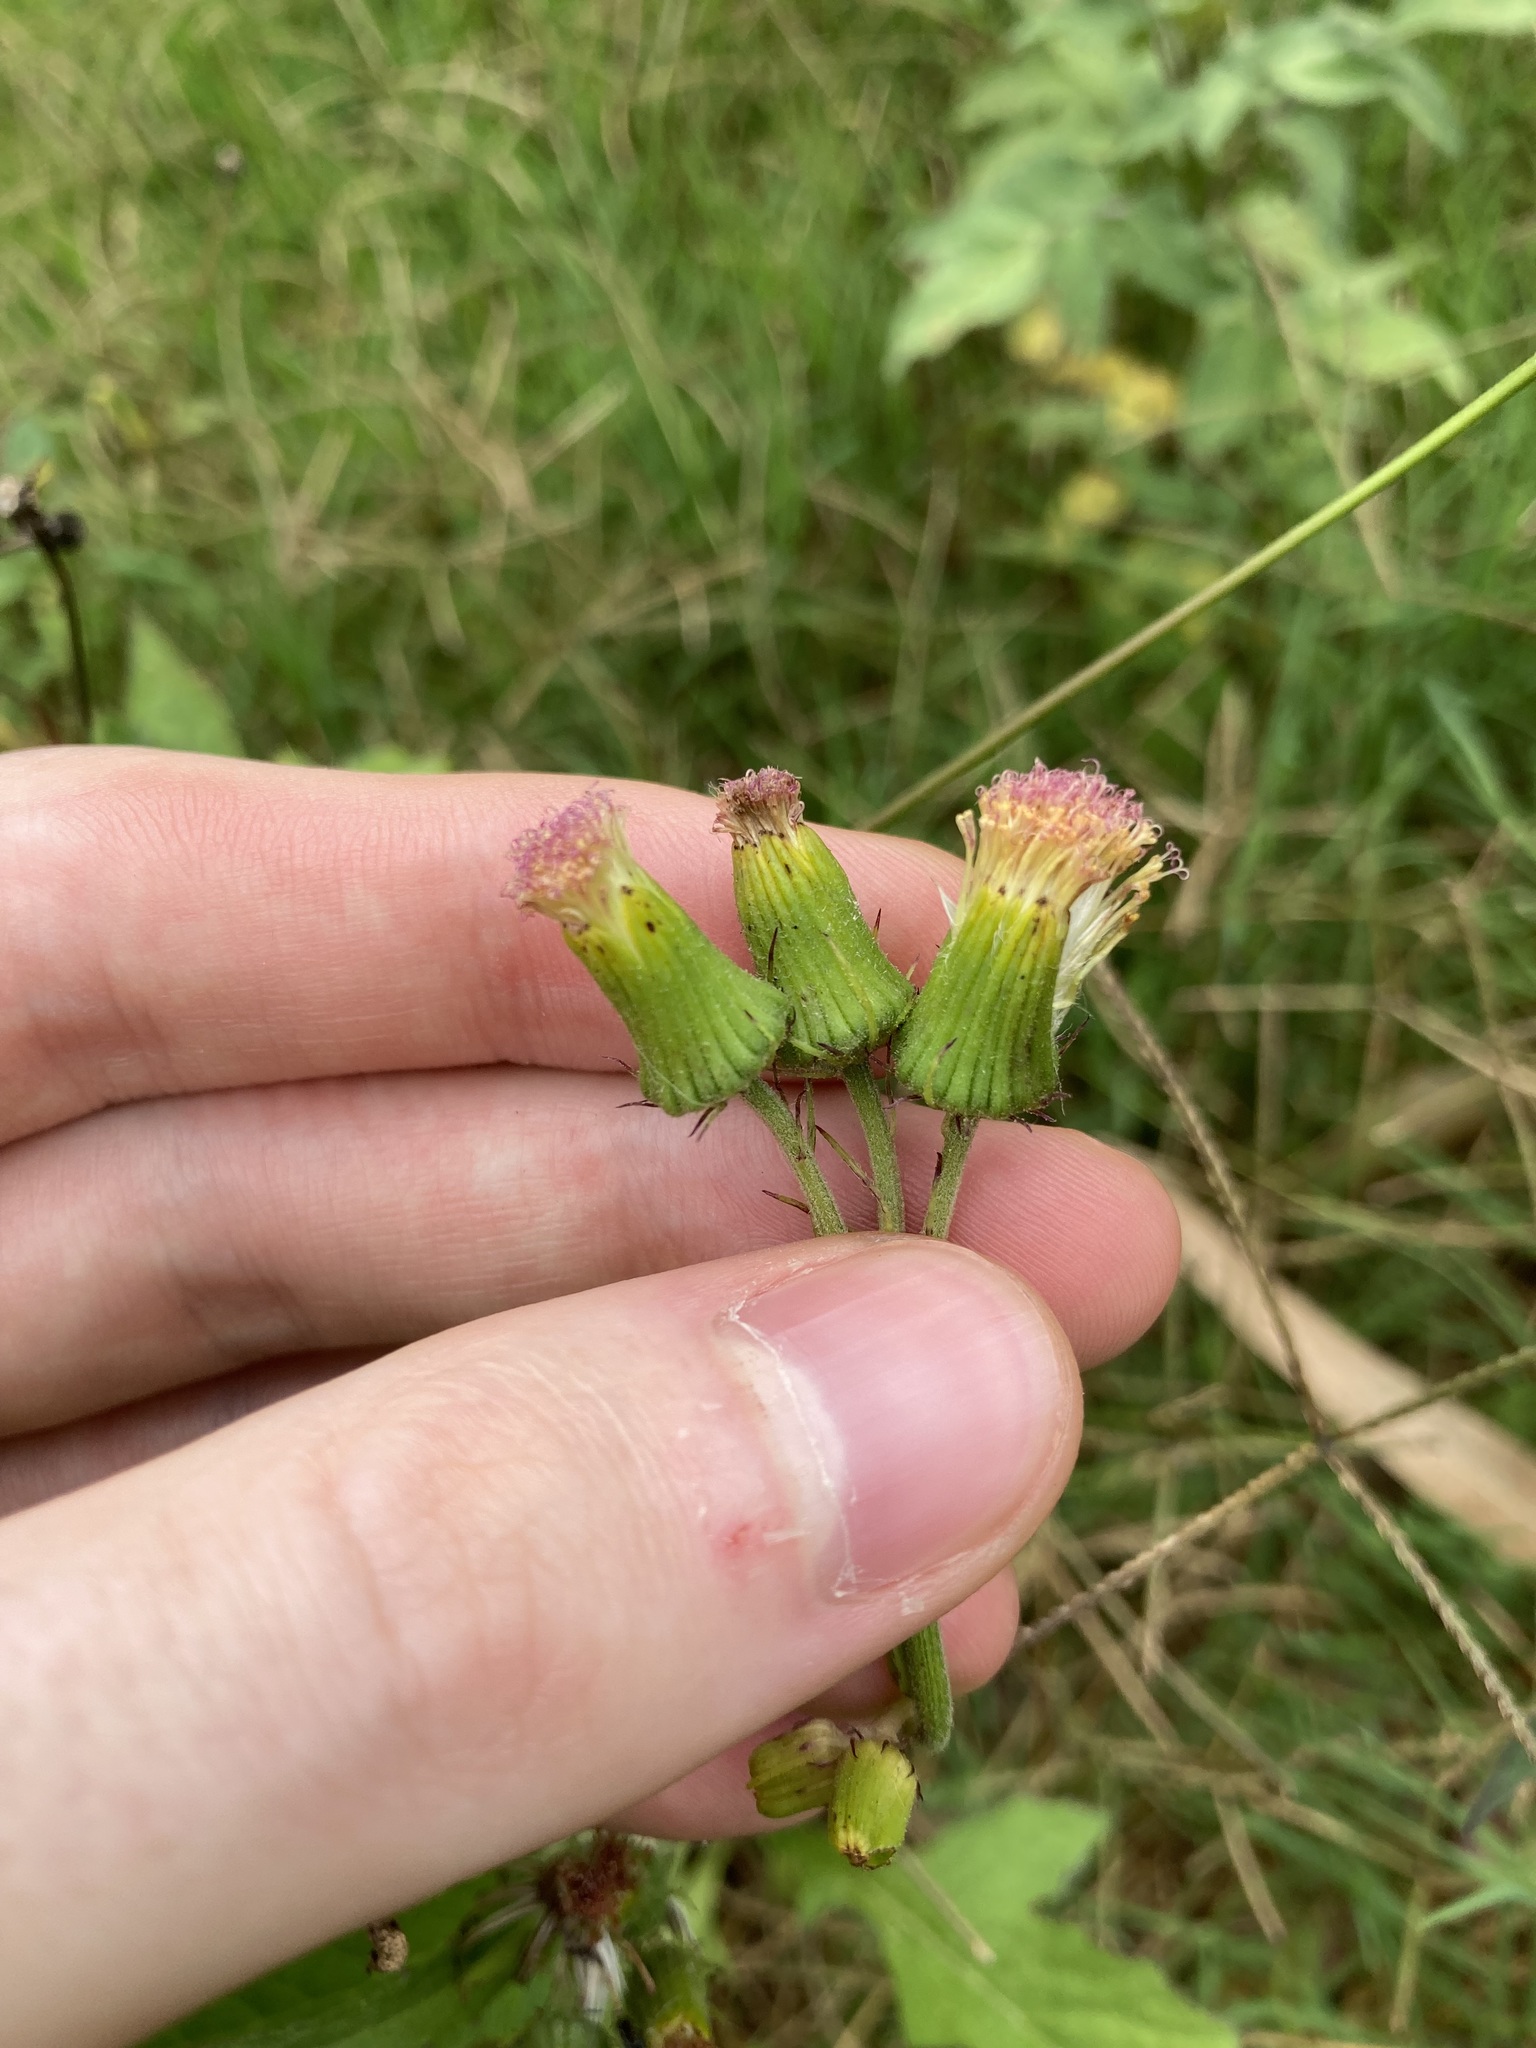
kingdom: Plantae
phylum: Tracheophyta
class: Magnoliopsida
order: Asterales
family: Asteraceae
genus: Crassocephalum
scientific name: Crassocephalum crepidioides
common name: Redflower ragleaf
